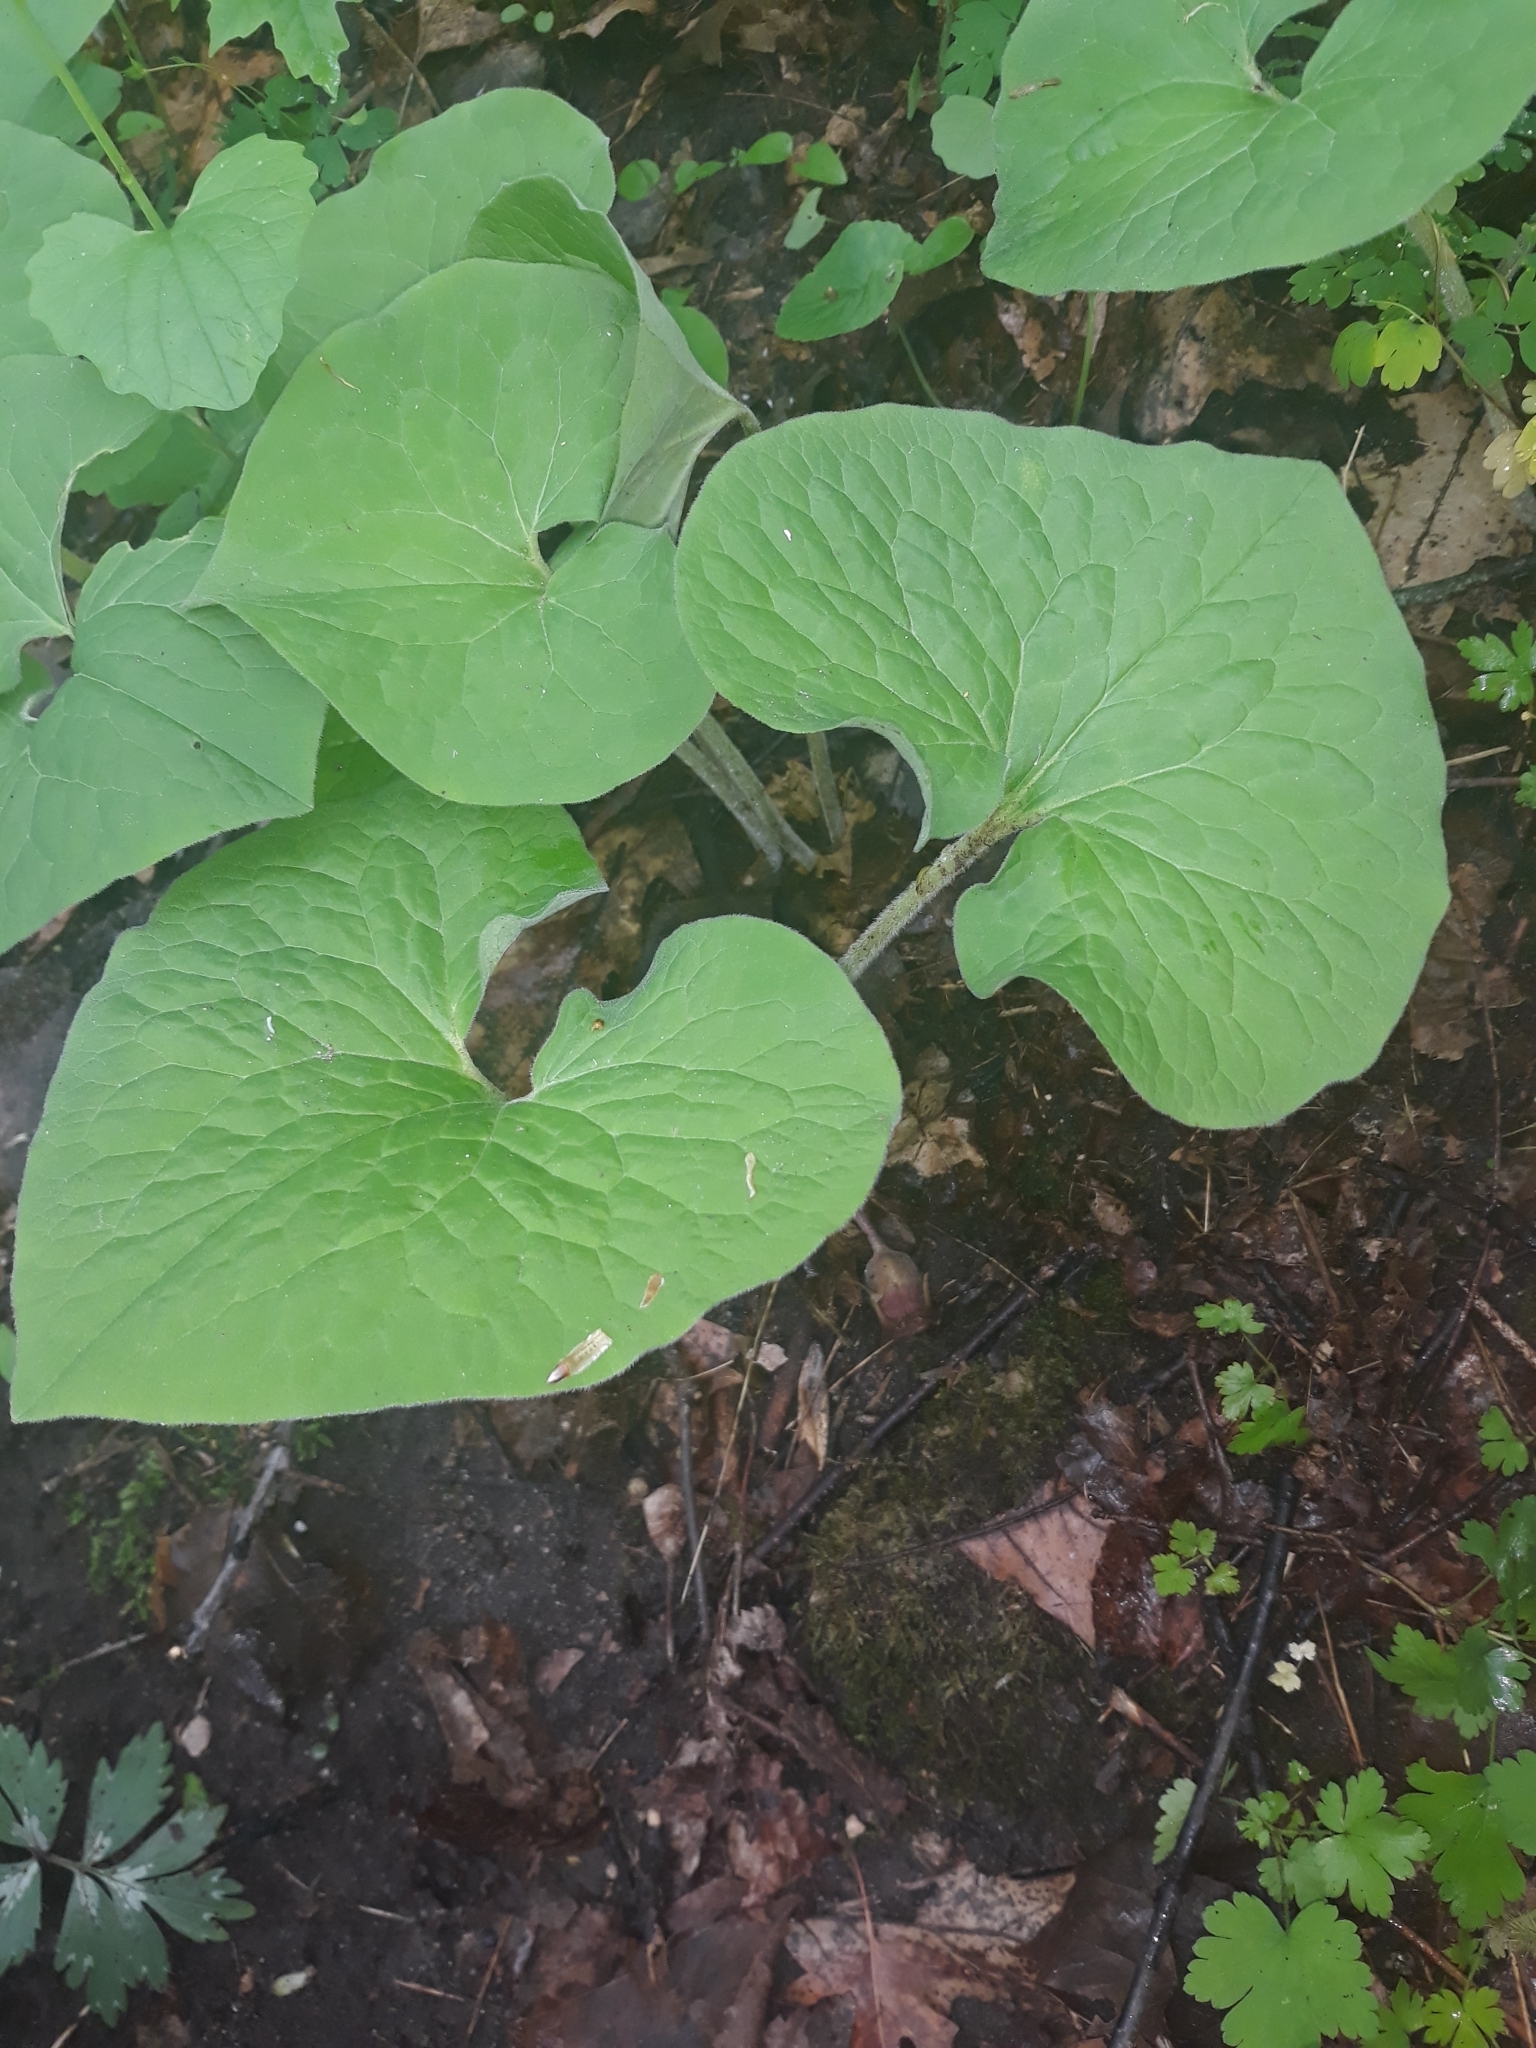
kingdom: Plantae
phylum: Tracheophyta
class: Magnoliopsida
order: Piperales
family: Aristolochiaceae
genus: Asarum
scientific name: Asarum canadense
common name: Wild ginger
